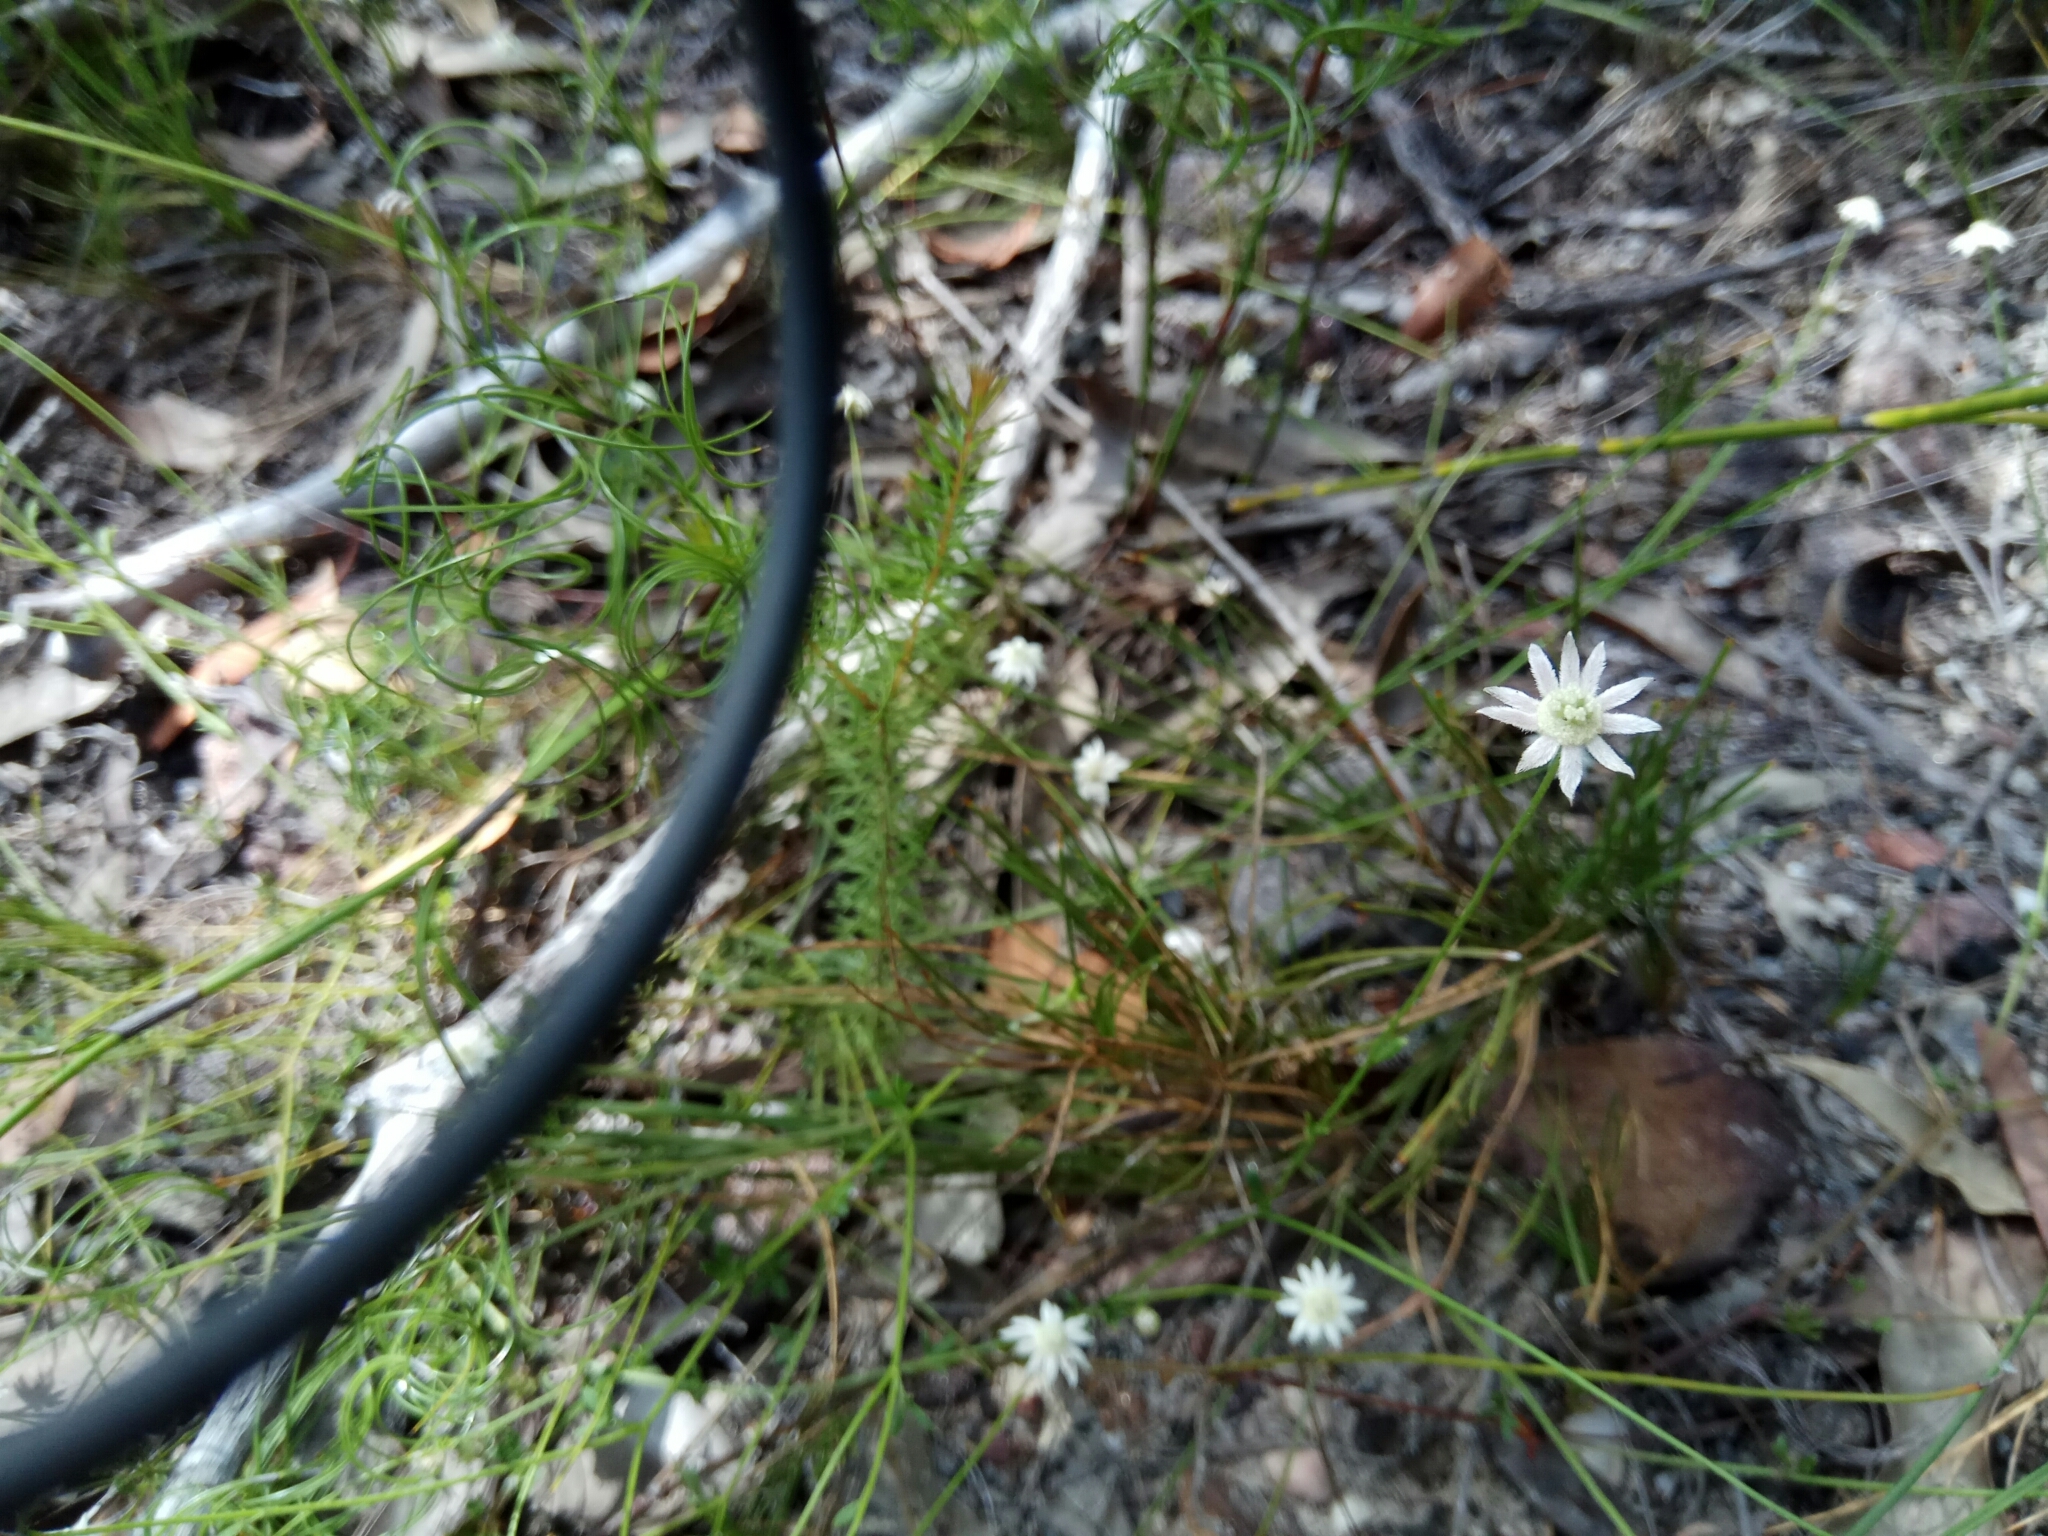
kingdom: Plantae
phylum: Tracheophyta
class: Magnoliopsida
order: Apiales
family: Apiaceae
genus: Actinotus
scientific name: Actinotus minor
